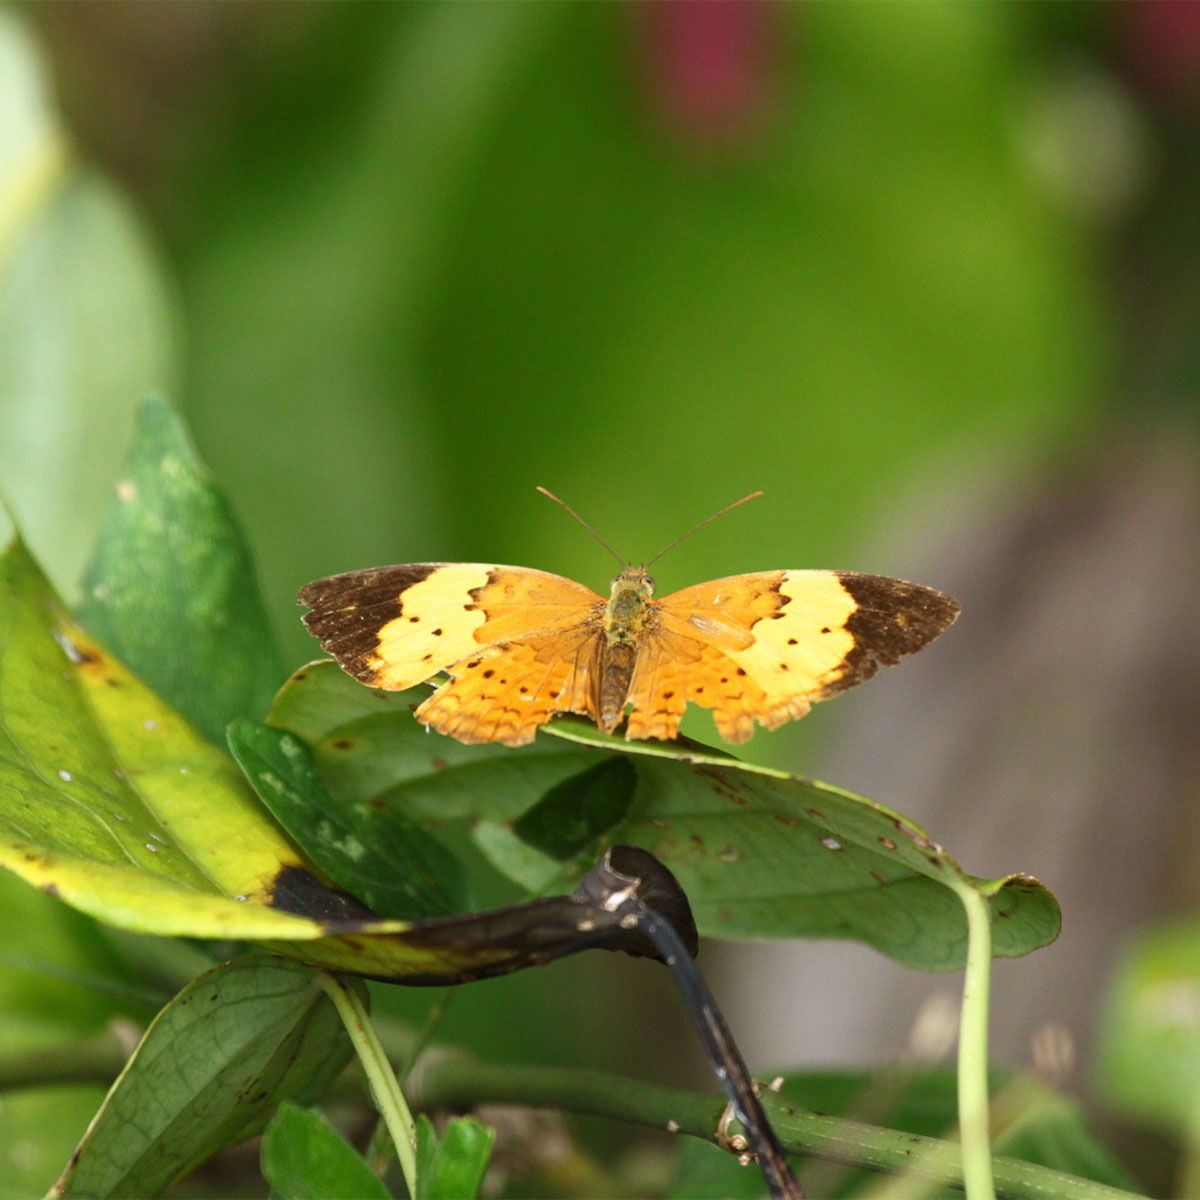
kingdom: Animalia
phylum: Arthropoda
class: Insecta
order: Lepidoptera
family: Nymphalidae
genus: Cupha
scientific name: Cupha erymanthis
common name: Rustic
